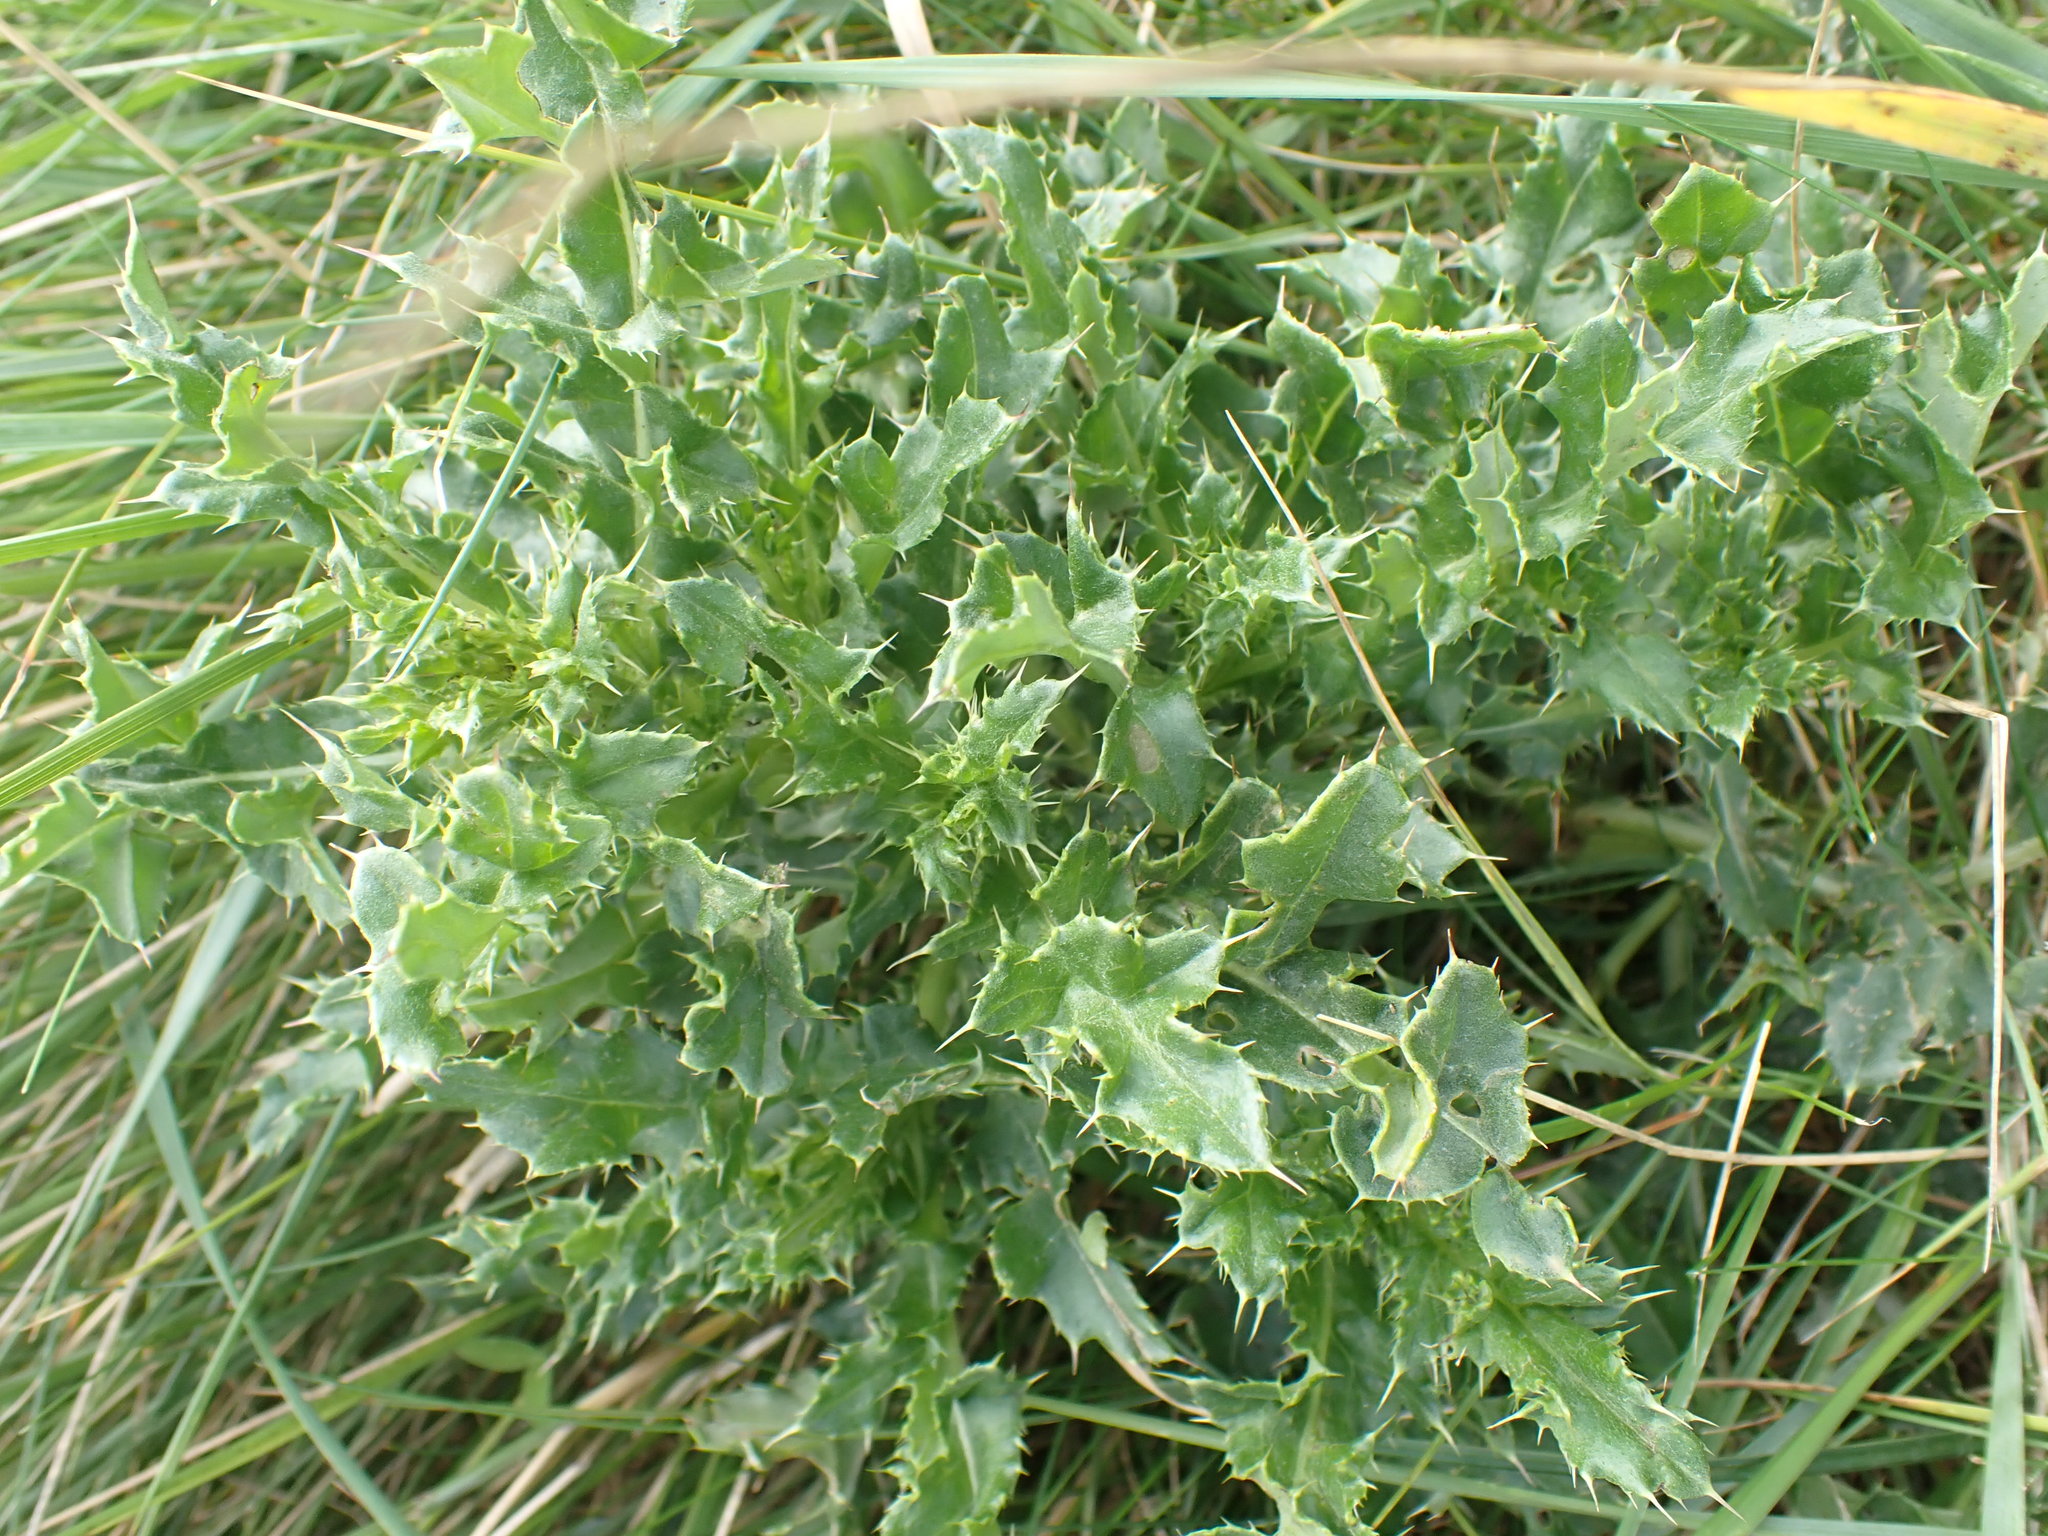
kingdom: Plantae
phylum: Tracheophyta
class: Magnoliopsida
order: Asterales
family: Asteraceae
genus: Cirsium
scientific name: Cirsium arvense
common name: Creeping thistle
